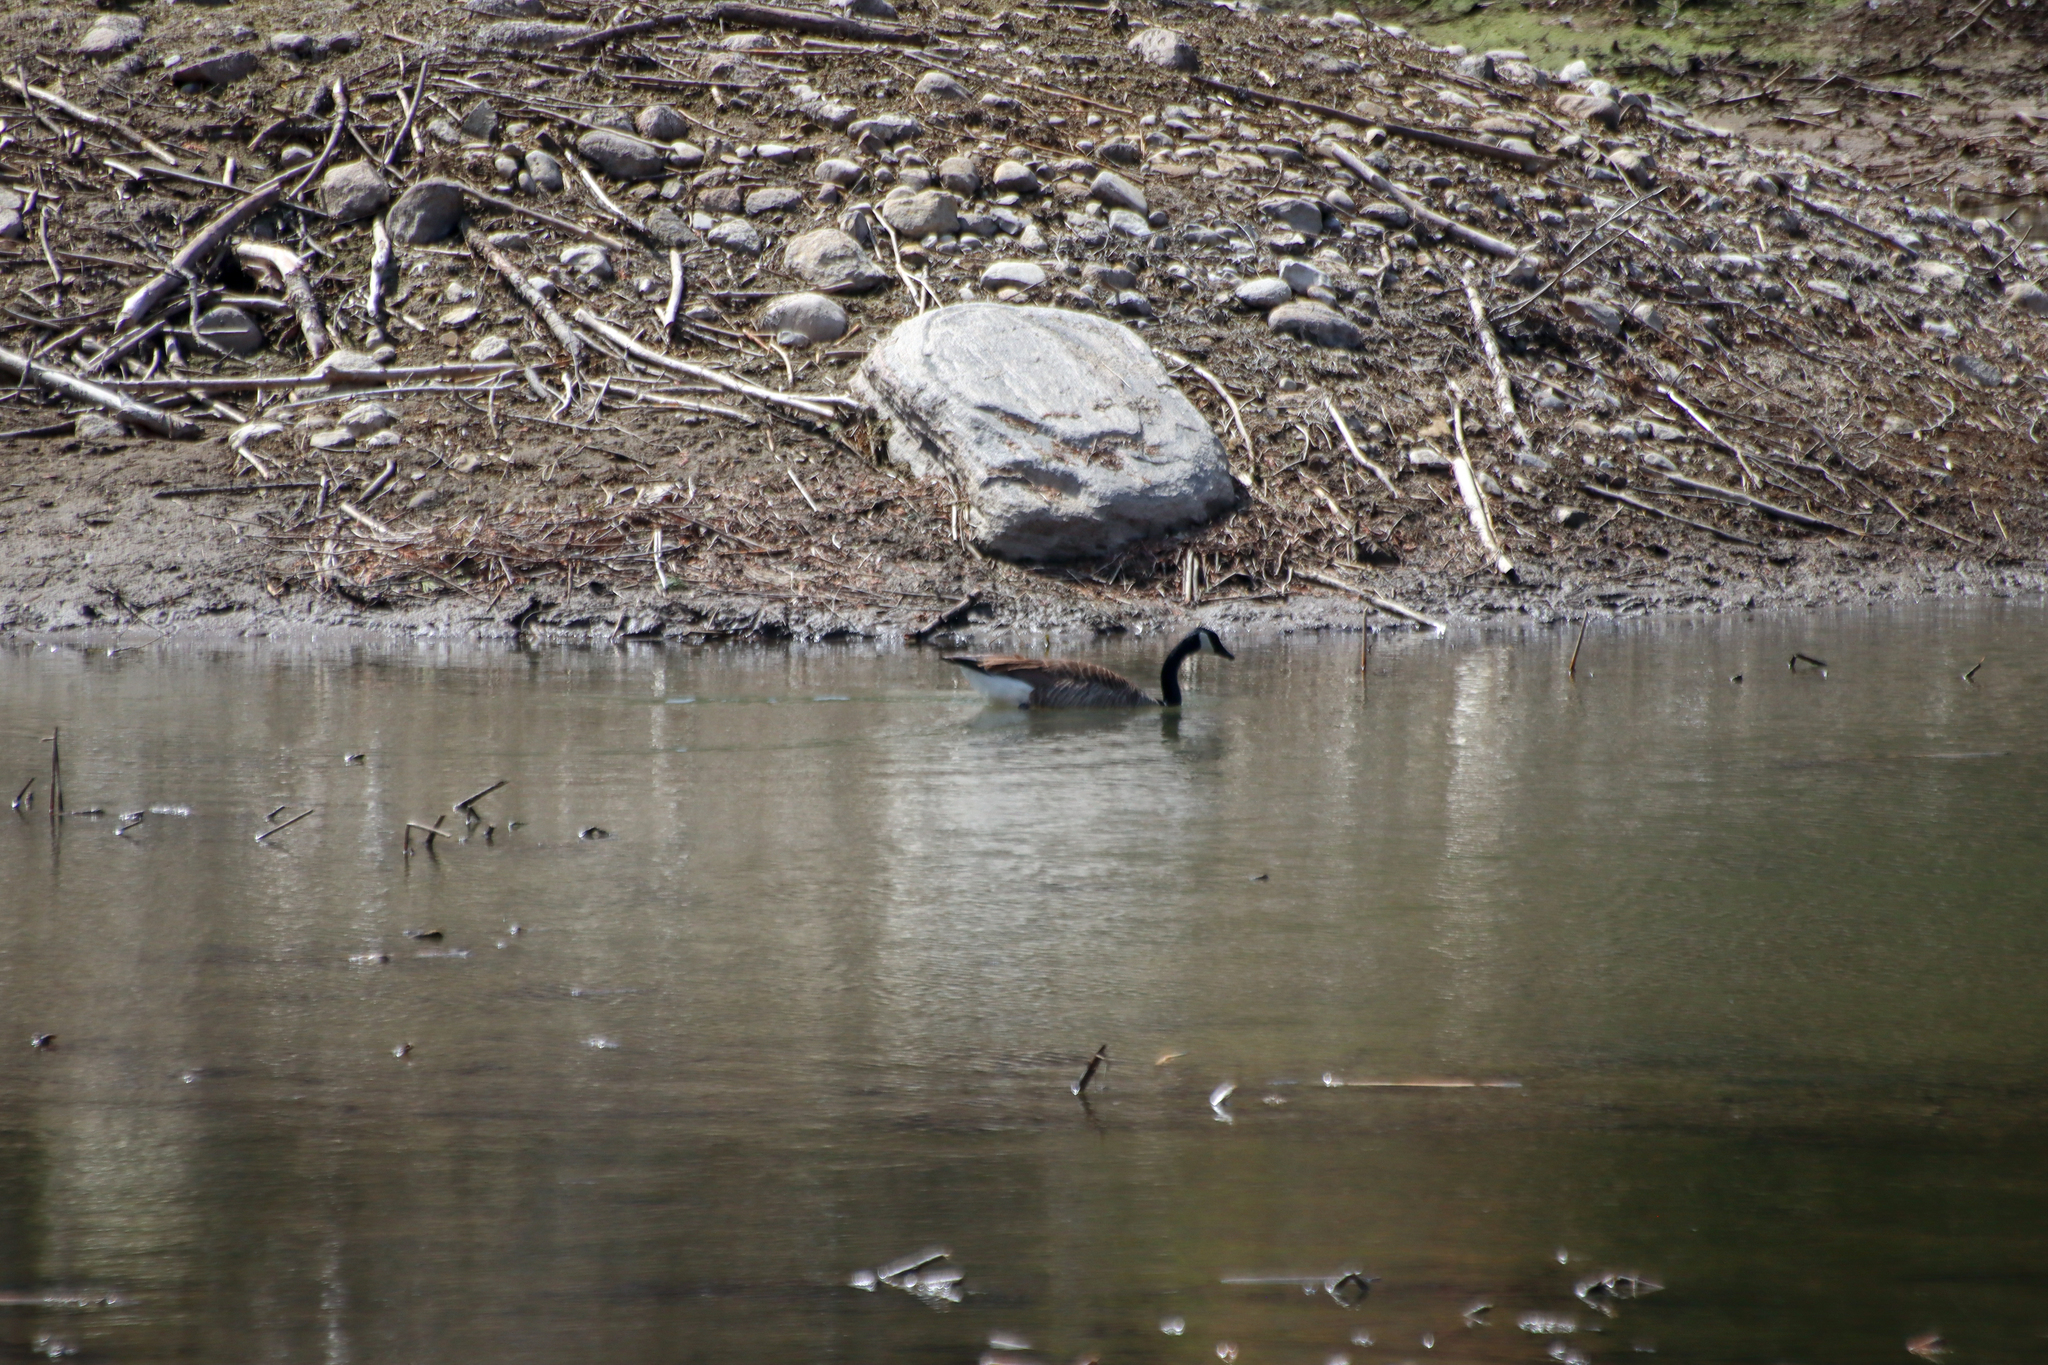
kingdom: Animalia
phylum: Chordata
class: Aves
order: Anseriformes
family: Anatidae
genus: Branta
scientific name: Branta canadensis
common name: Canada goose
